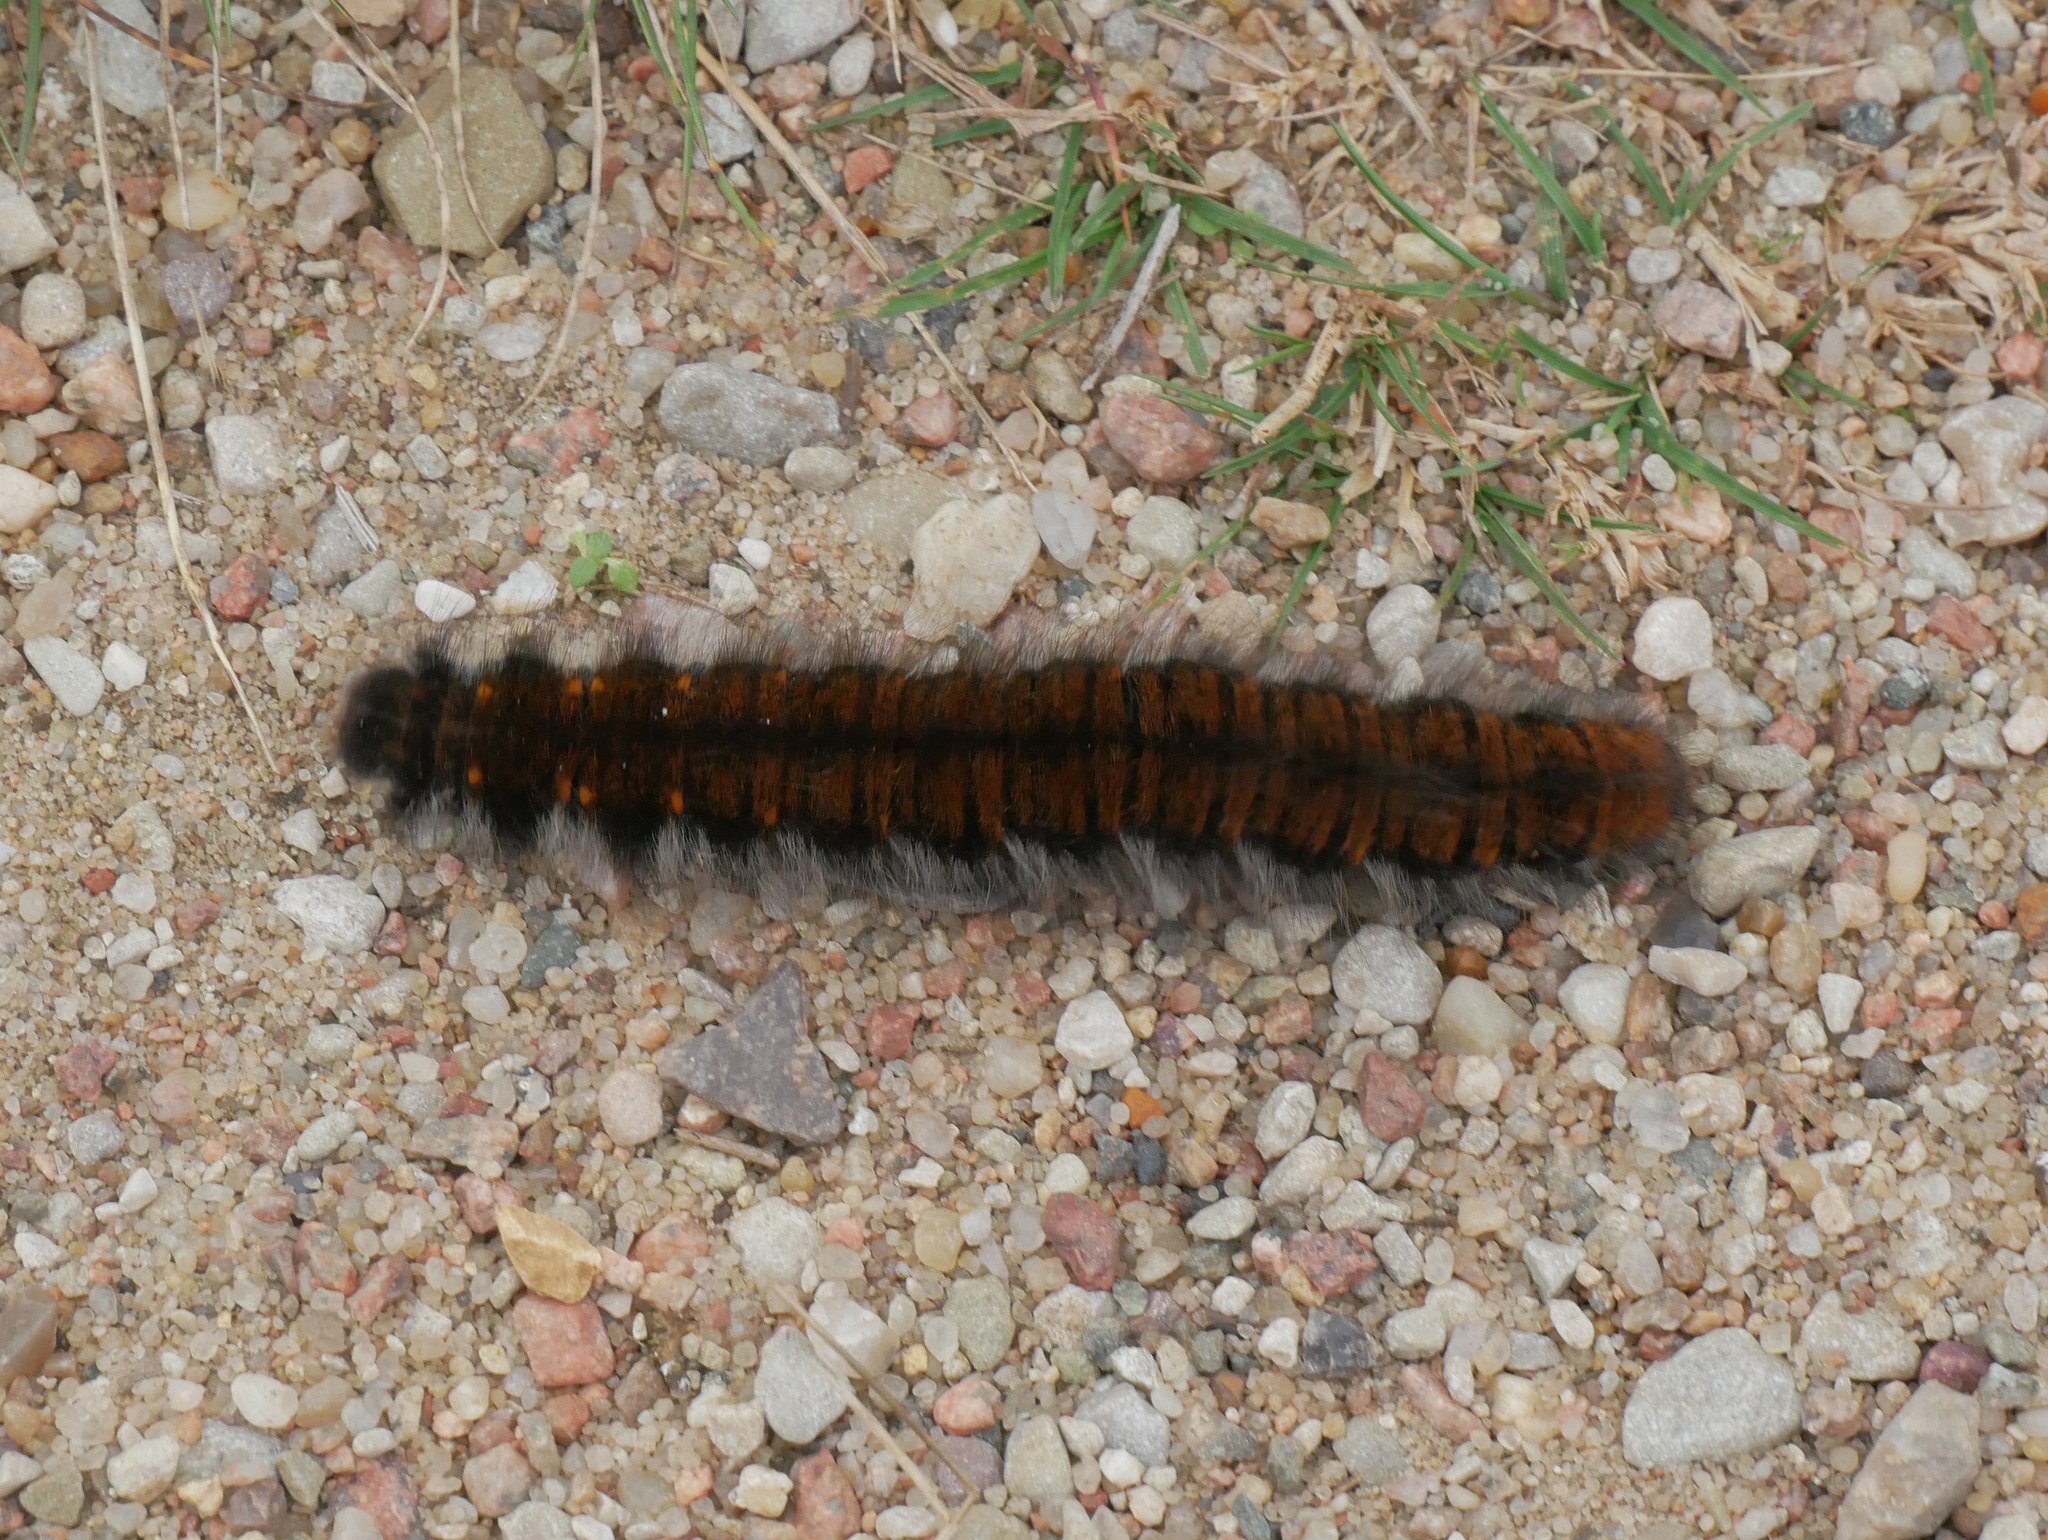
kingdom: Animalia
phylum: Arthropoda
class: Insecta
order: Lepidoptera
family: Lasiocampidae
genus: Macrothylacia
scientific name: Macrothylacia rubi
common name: Fox moth
